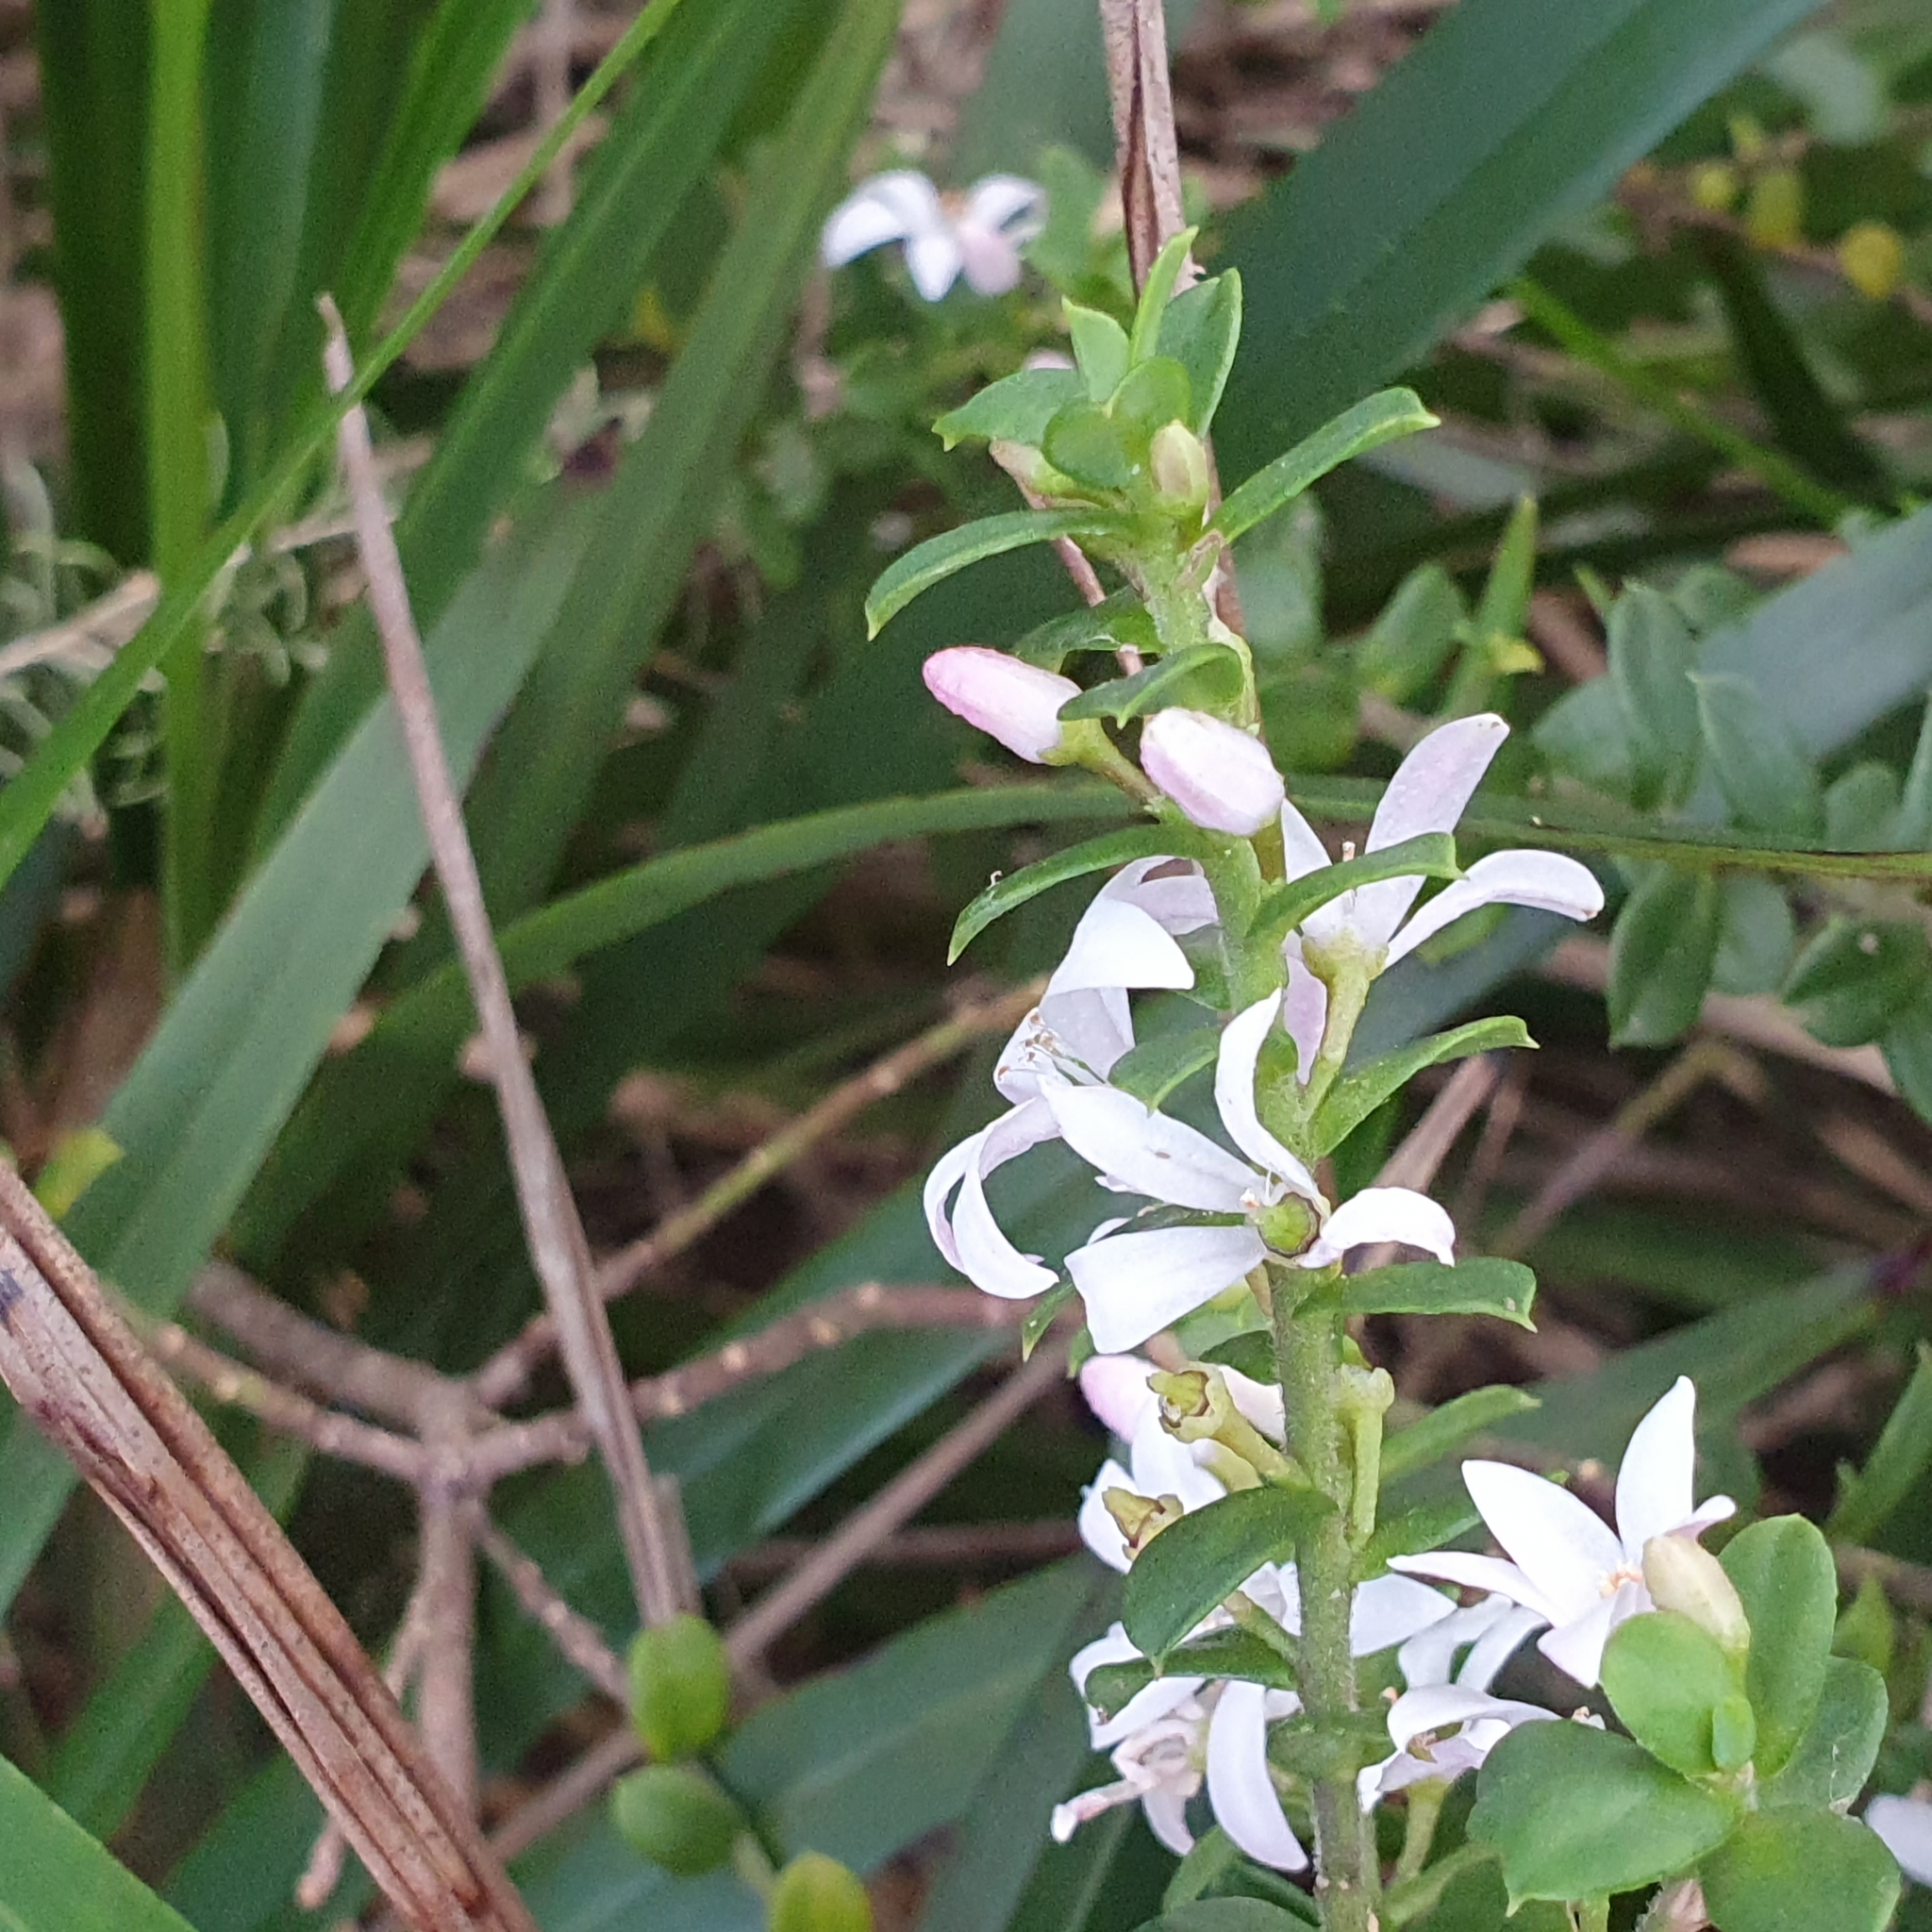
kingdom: Plantae
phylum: Tracheophyta
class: Magnoliopsida
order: Sapindales
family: Rutaceae
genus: Philotheca
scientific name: Philotheca buxifolia
